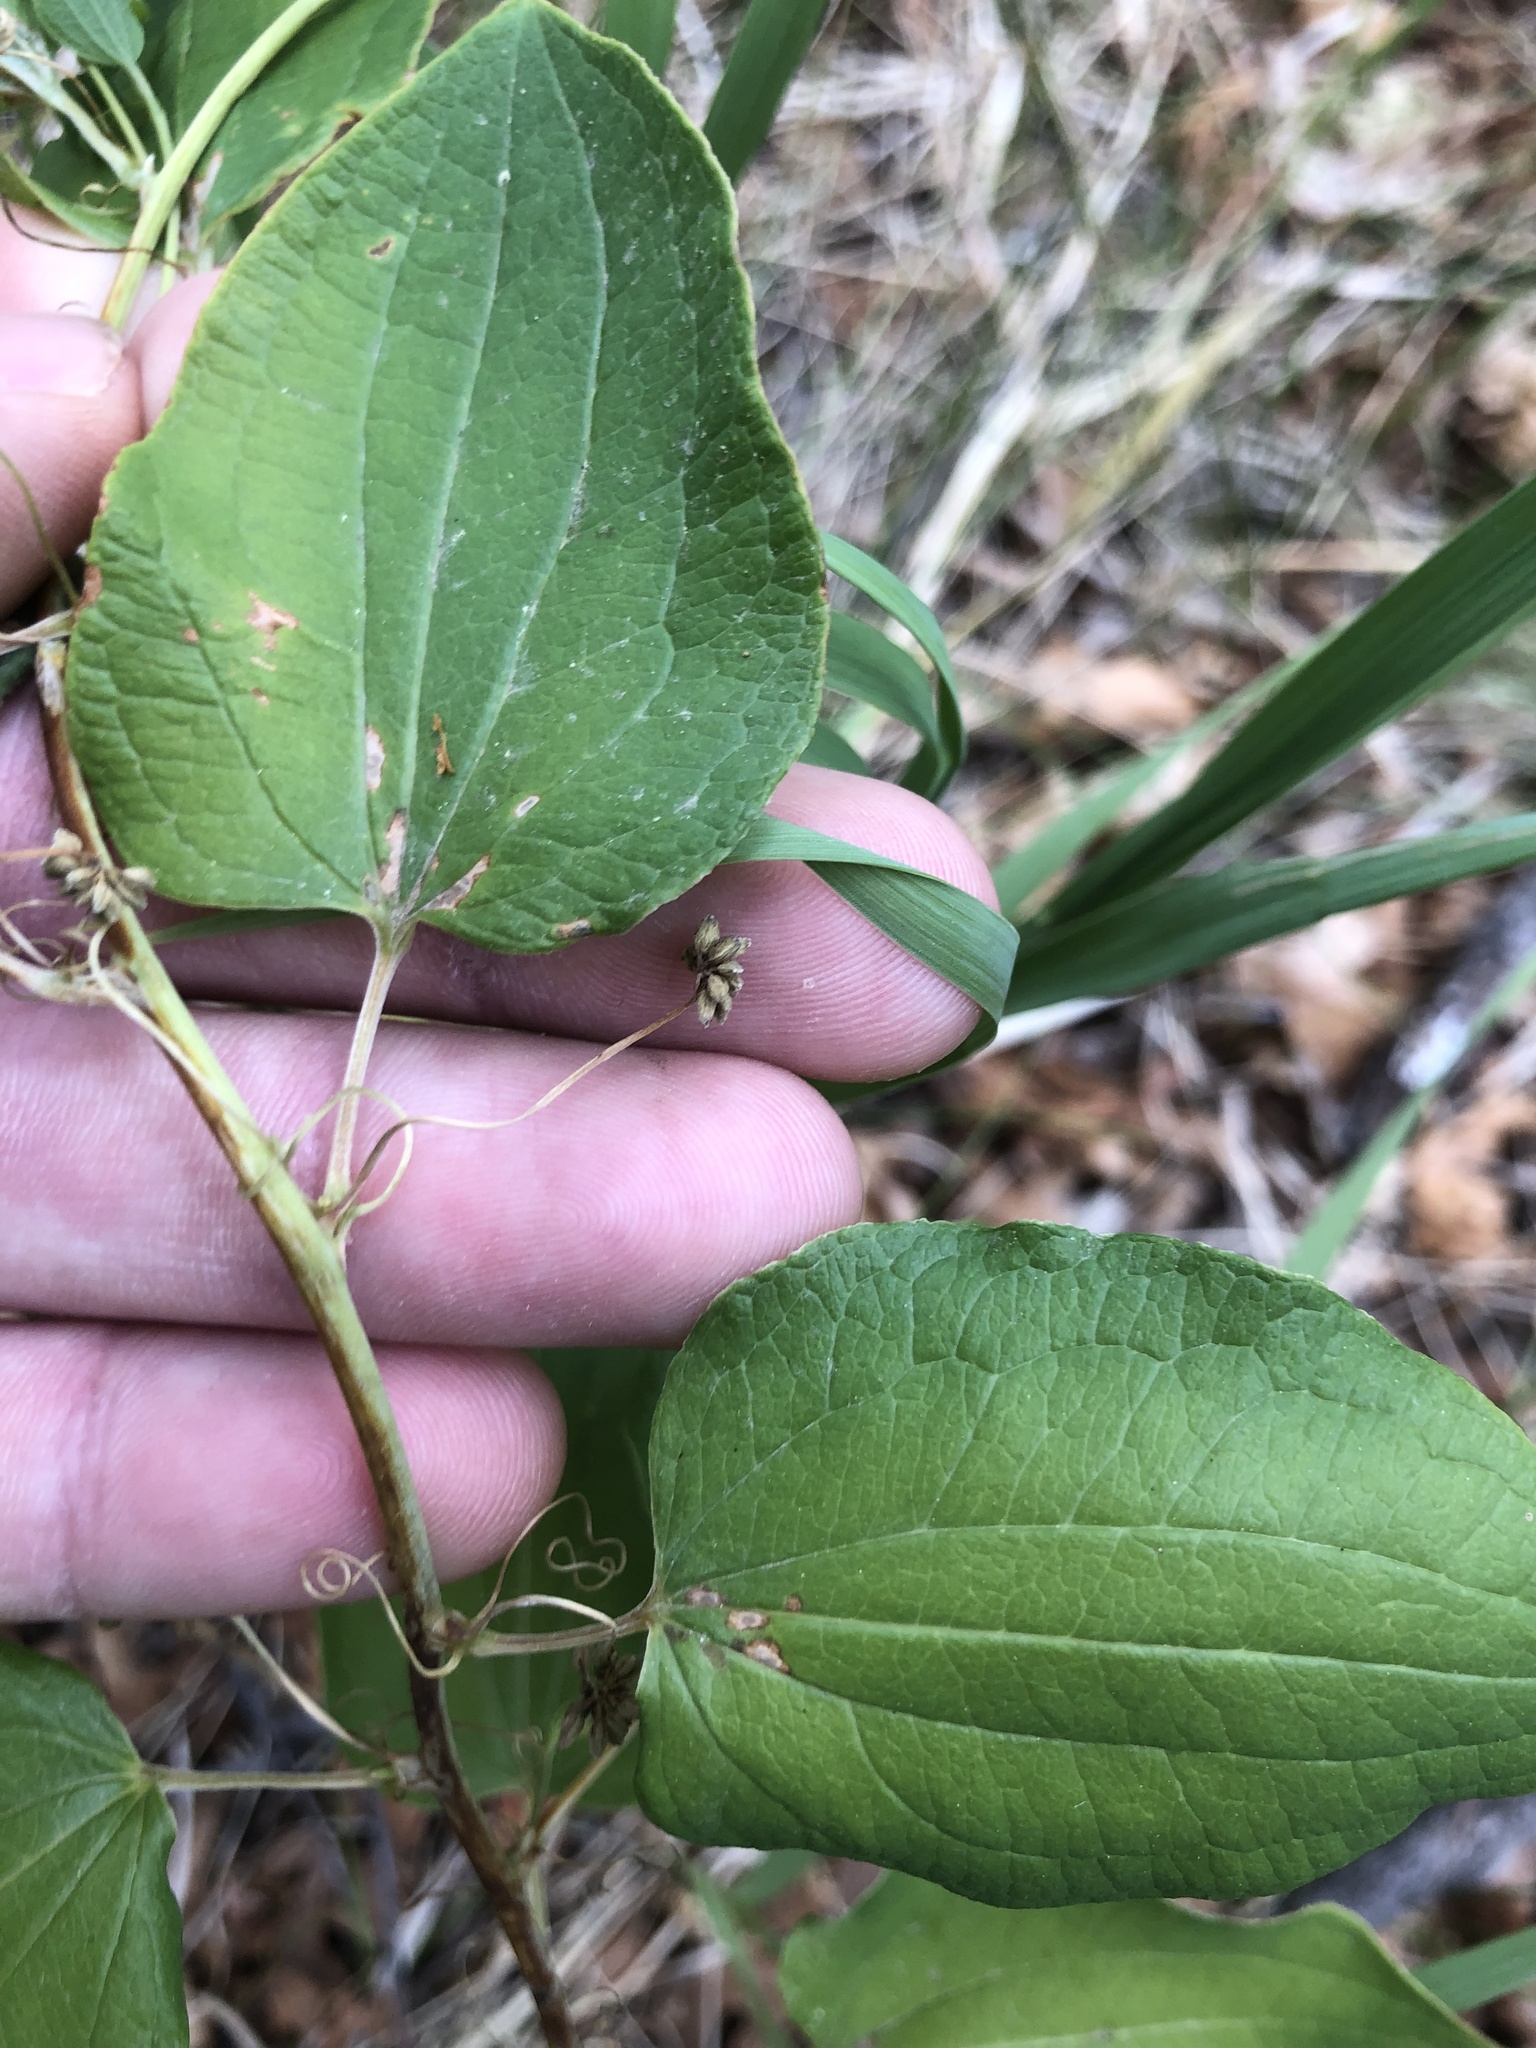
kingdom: Plantae
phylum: Tracheophyta
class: Liliopsida
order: Liliales
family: Smilacaceae
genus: Smilax
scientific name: Smilax lasioneura
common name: Blue ridge carrionflower
